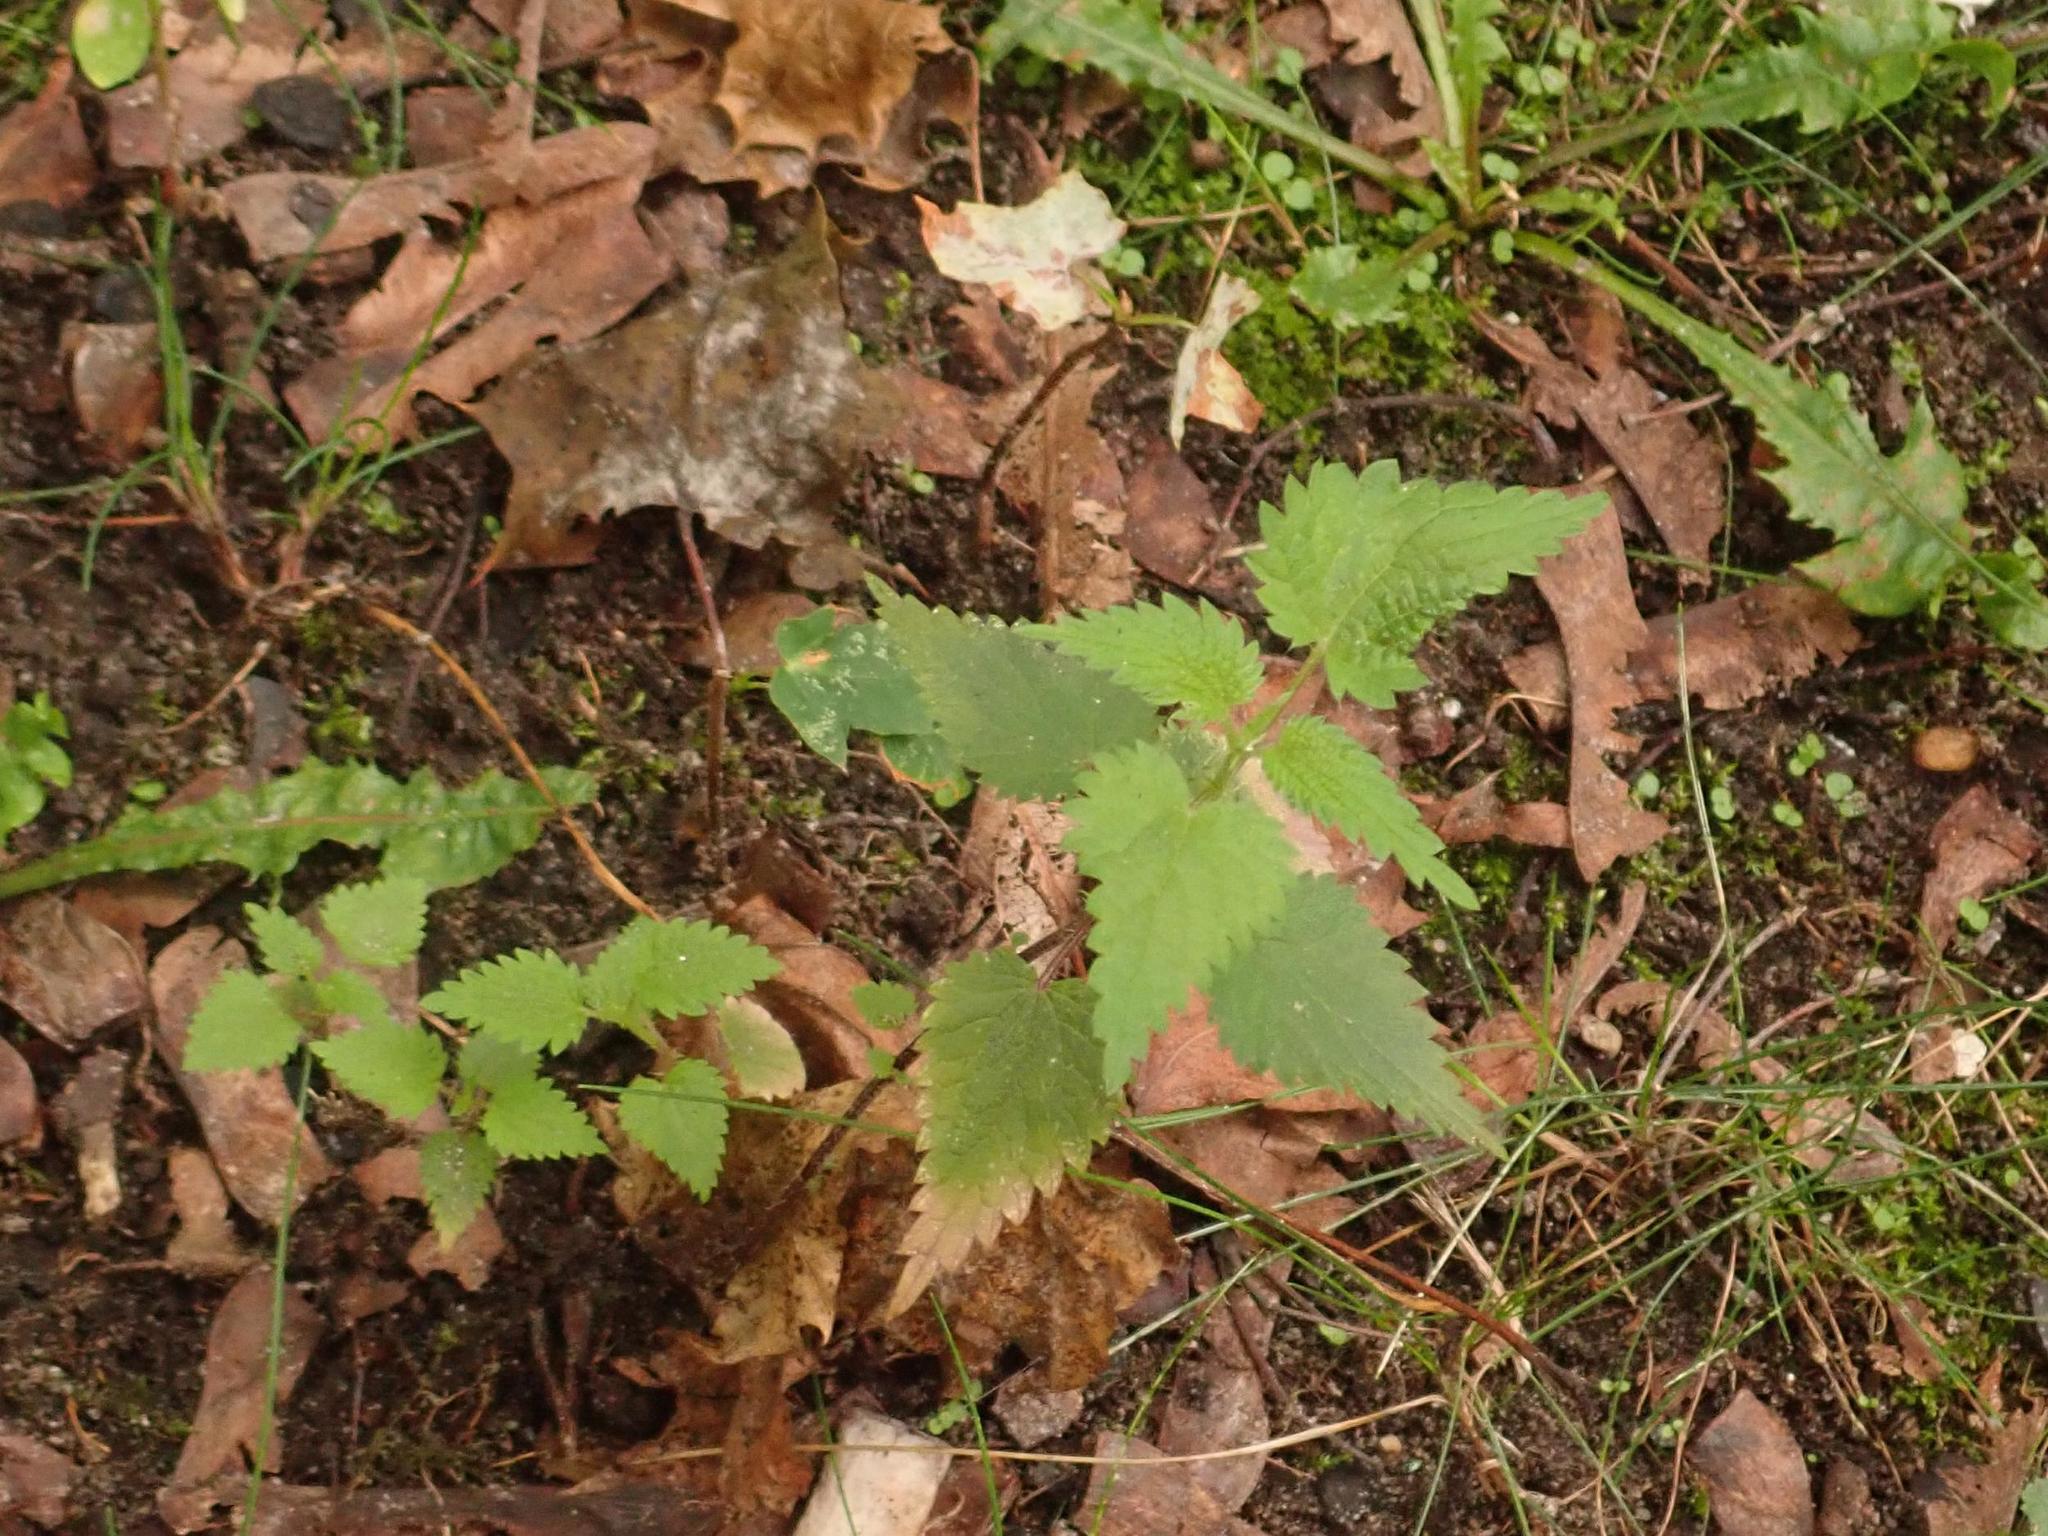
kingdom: Plantae
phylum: Tracheophyta
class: Magnoliopsida
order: Rosales
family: Urticaceae
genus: Urtica
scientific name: Urtica dioica
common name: Common nettle
